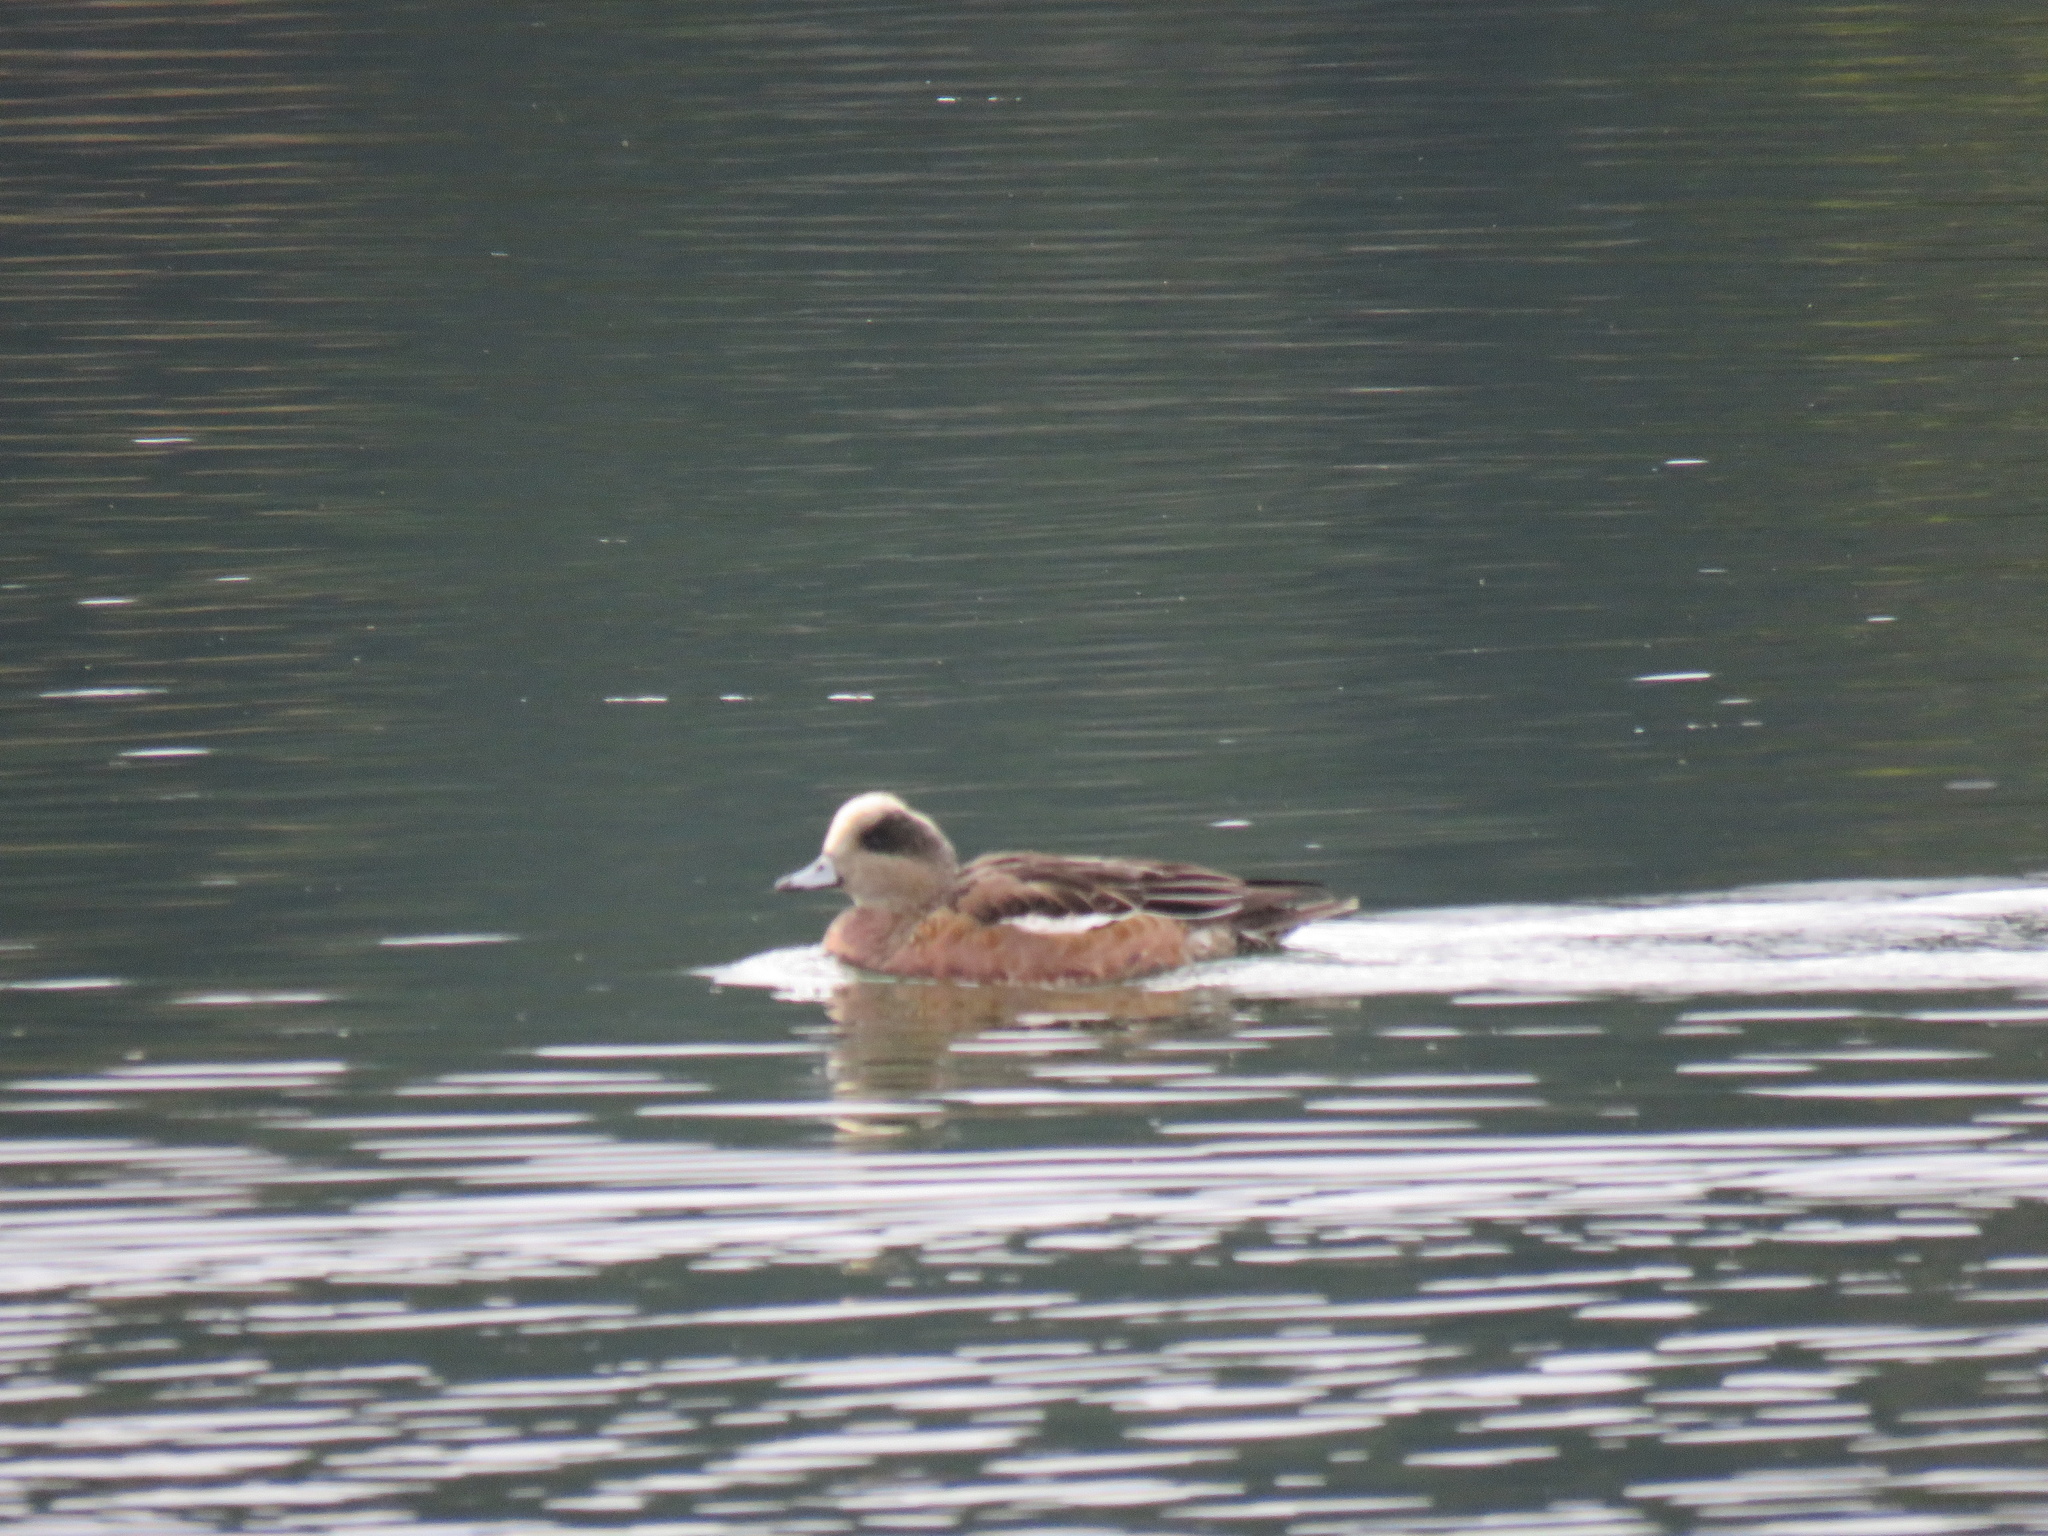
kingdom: Animalia
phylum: Chordata
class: Aves
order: Anseriformes
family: Anatidae
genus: Mareca
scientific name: Mareca americana
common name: American wigeon
